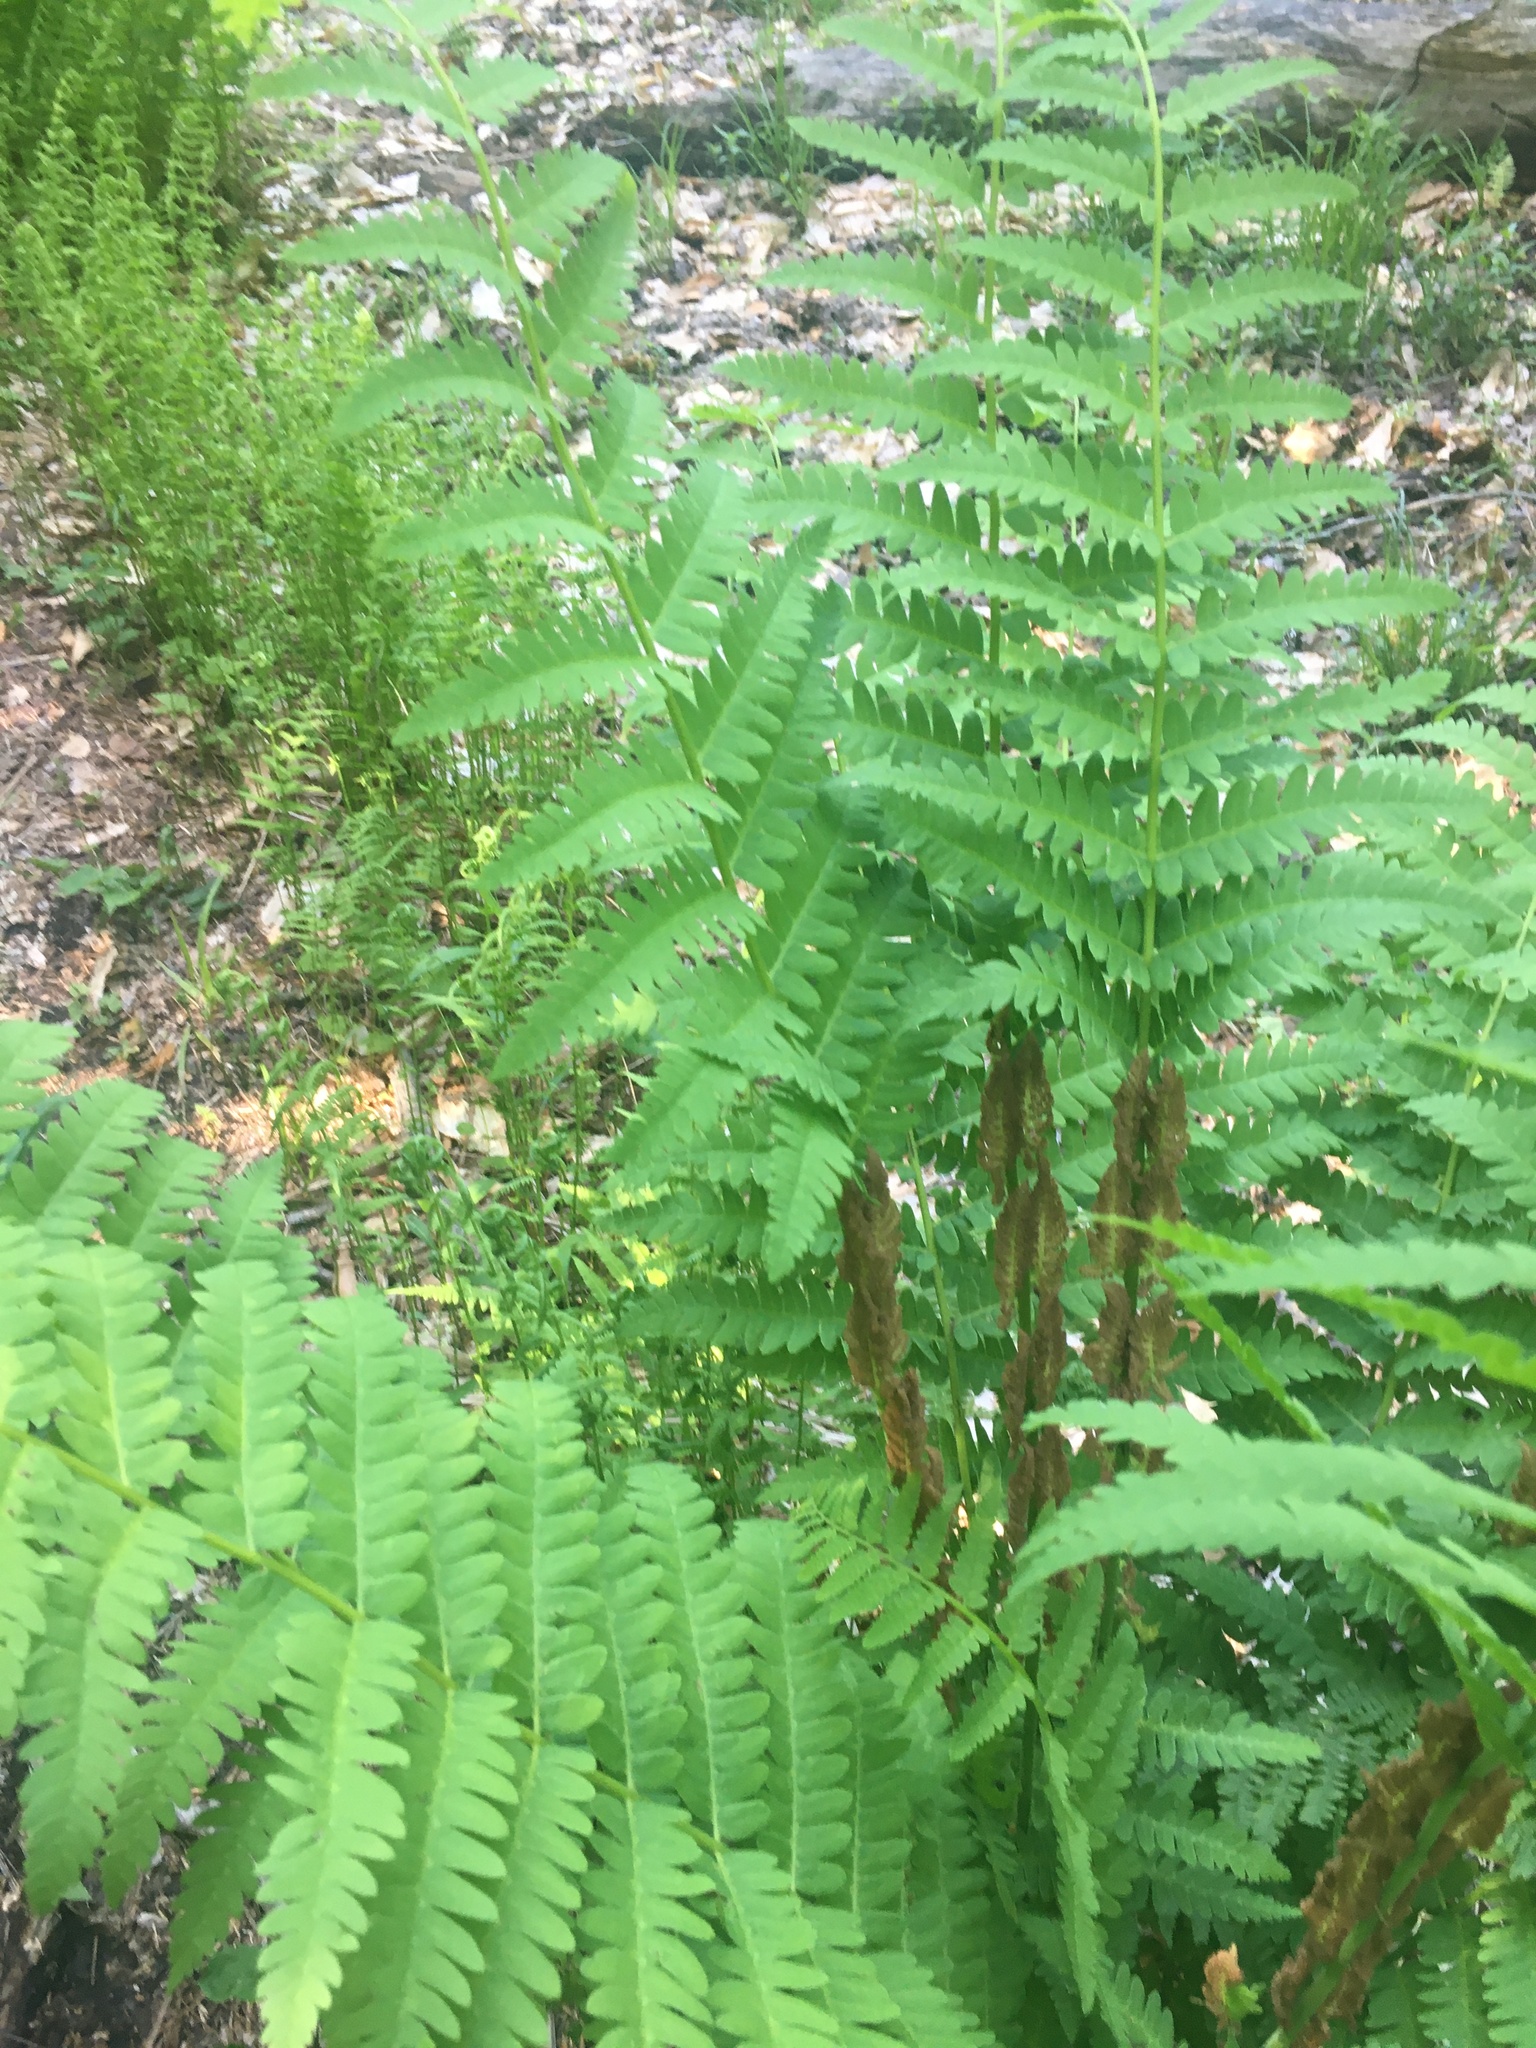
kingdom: Plantae
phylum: Tracheophyta
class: Polypodiopsida
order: Osmundales
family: Osmundaceae
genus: Claytosmunda
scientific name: Claytosmunda claytoniana
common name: Clayton's fern
